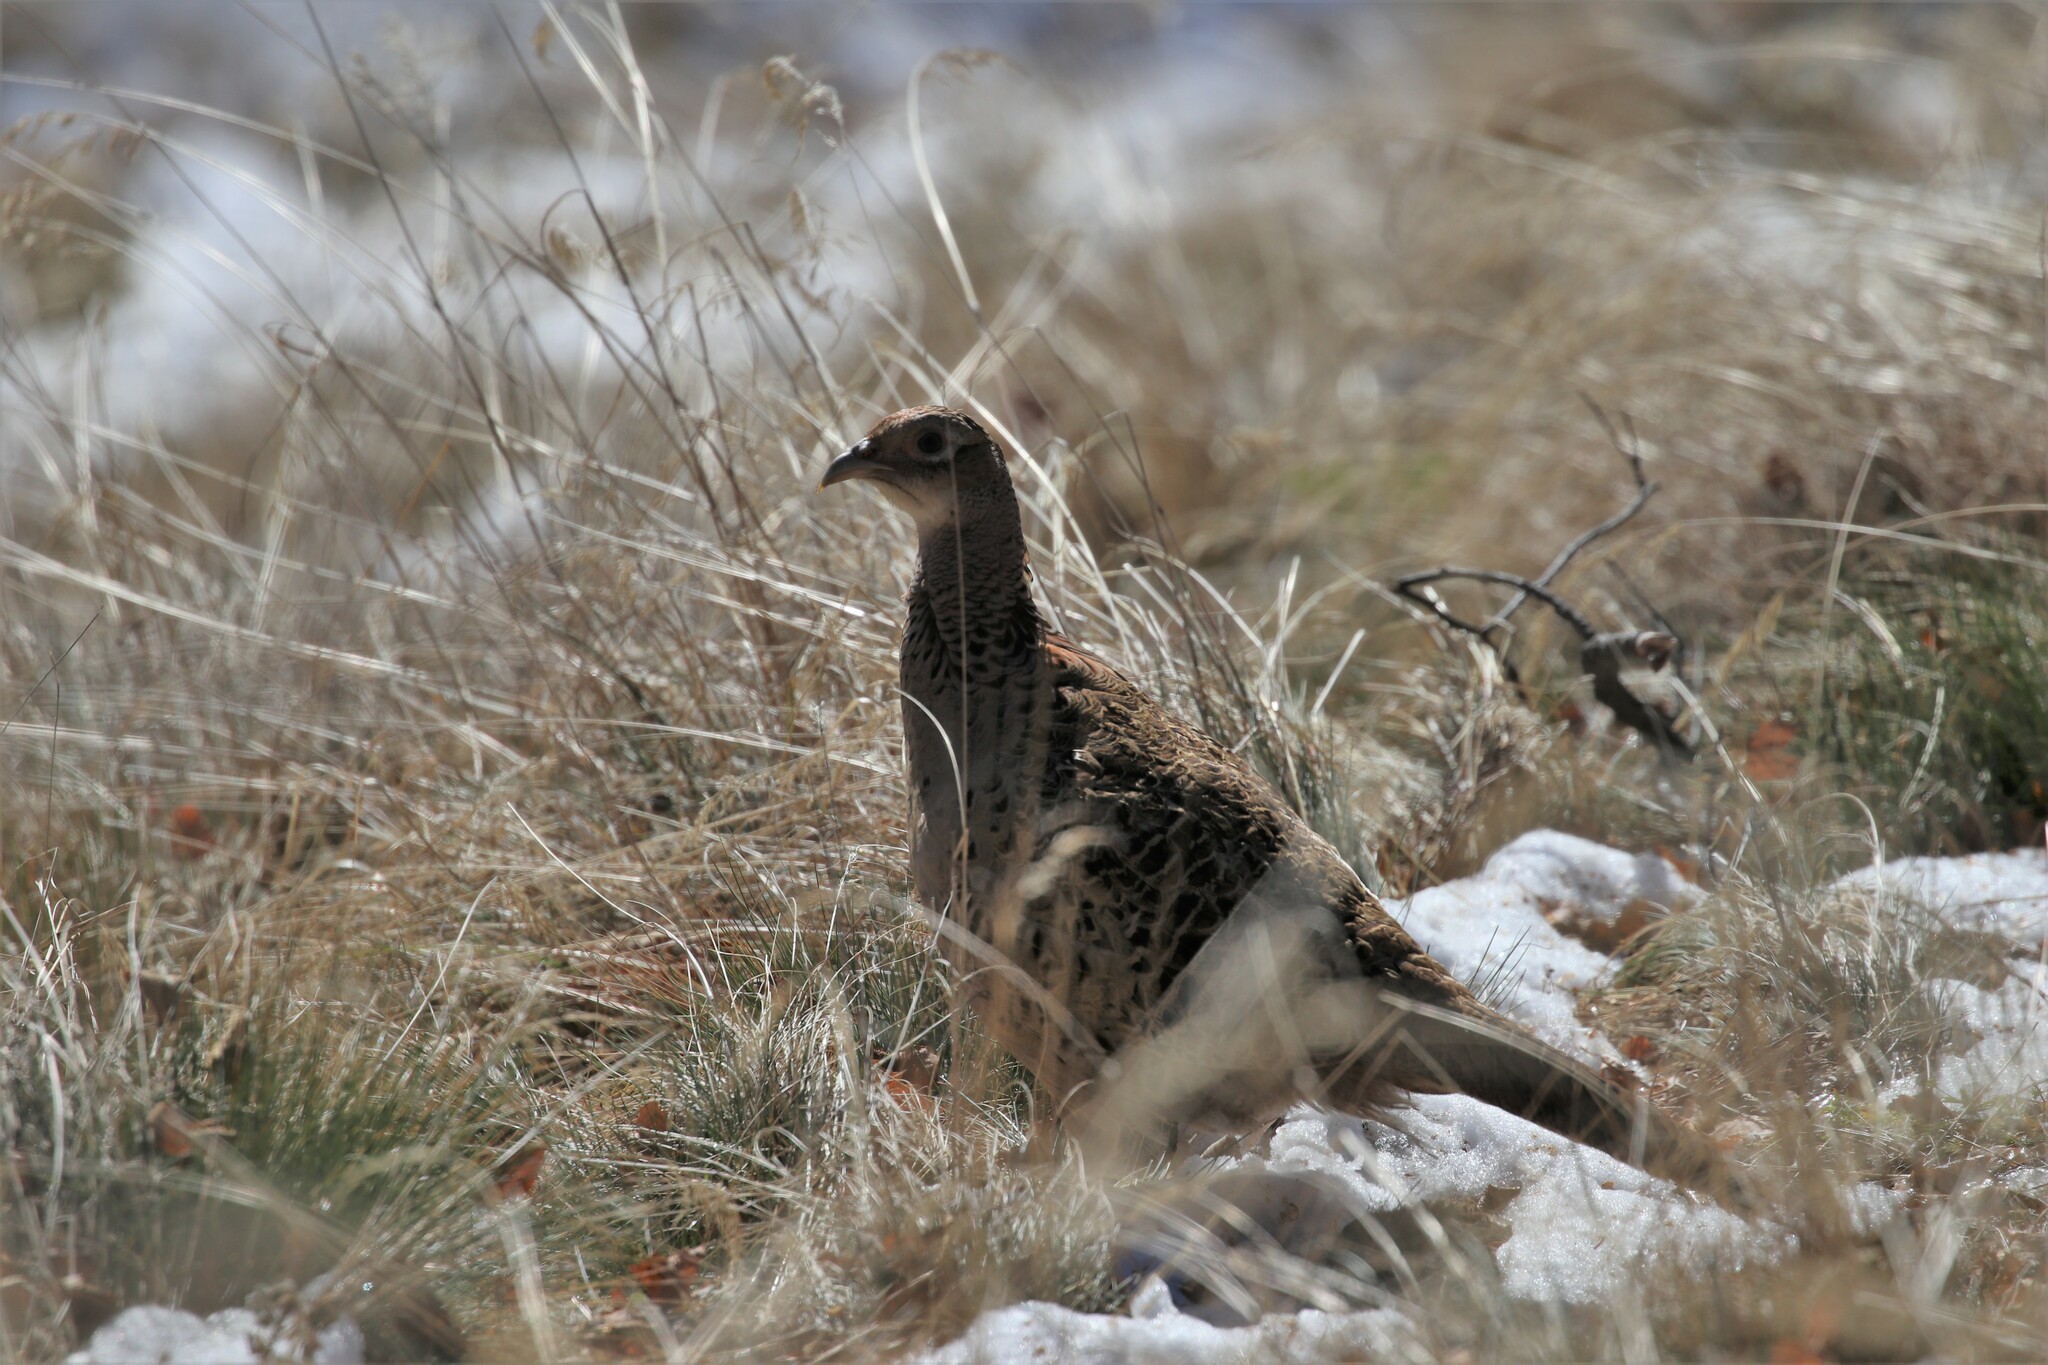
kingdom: Animalia
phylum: Chordata
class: Aves
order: Galliformes
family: Phasianidae
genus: Phasianus
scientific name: Phasianus colchicus
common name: Common pheasant
